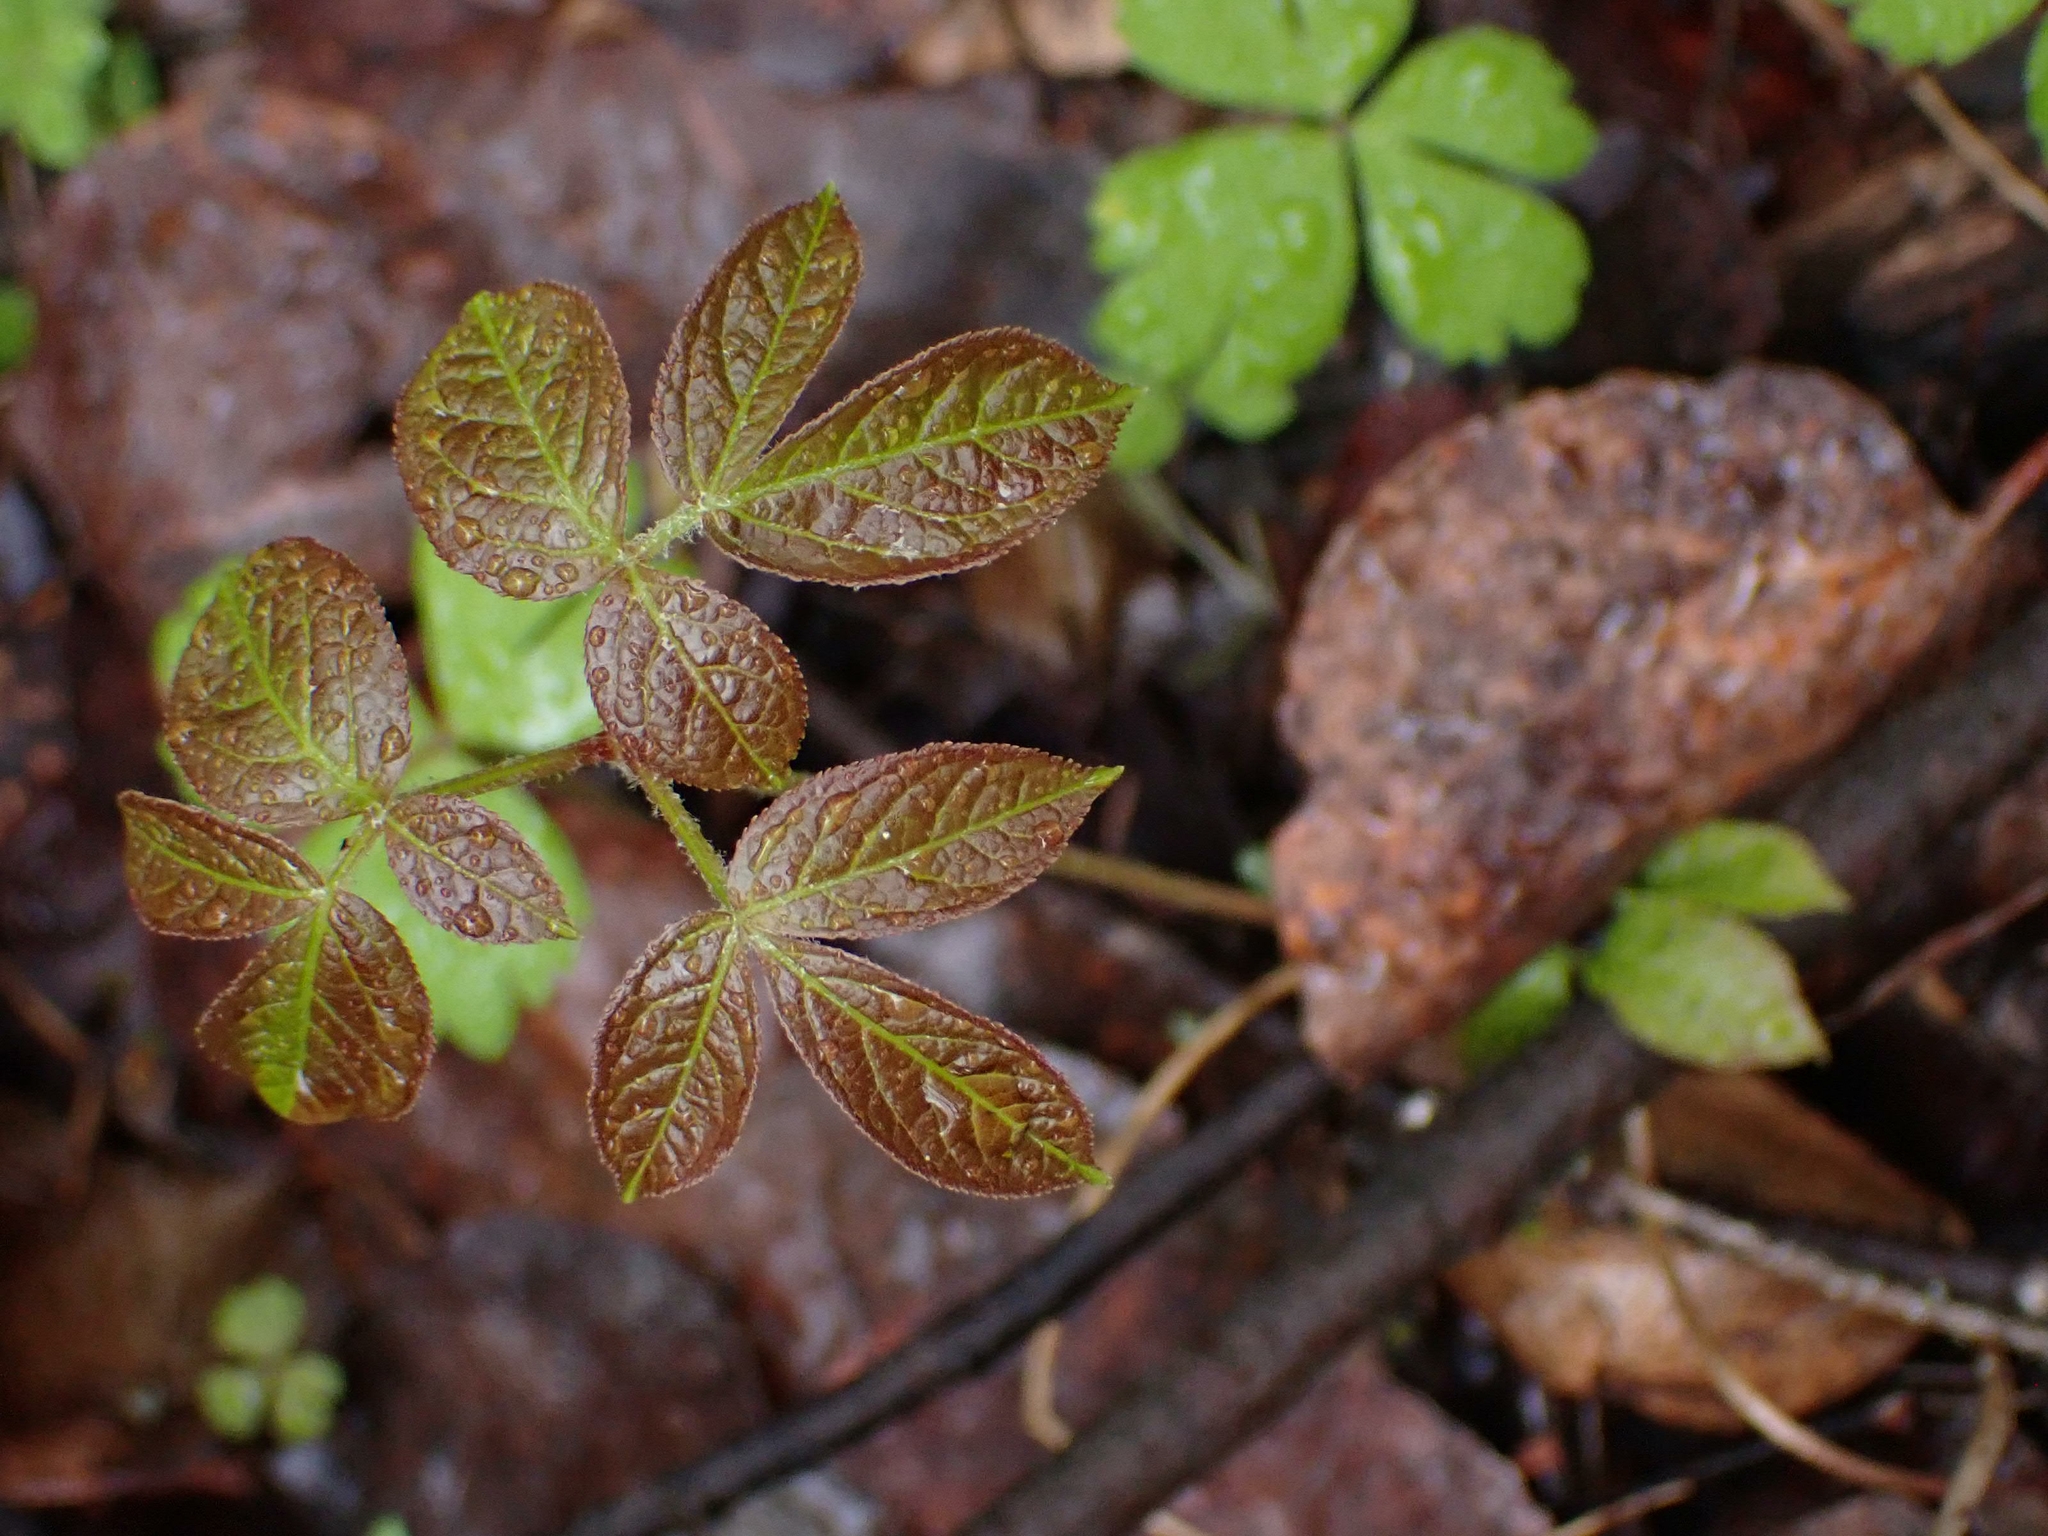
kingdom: Plantae
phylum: Tracheophyta
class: Magnoliopsida
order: Apiales
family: Araliaceae
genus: Aralia
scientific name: Aralia nudicaulis
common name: Wild sarsaparilla
